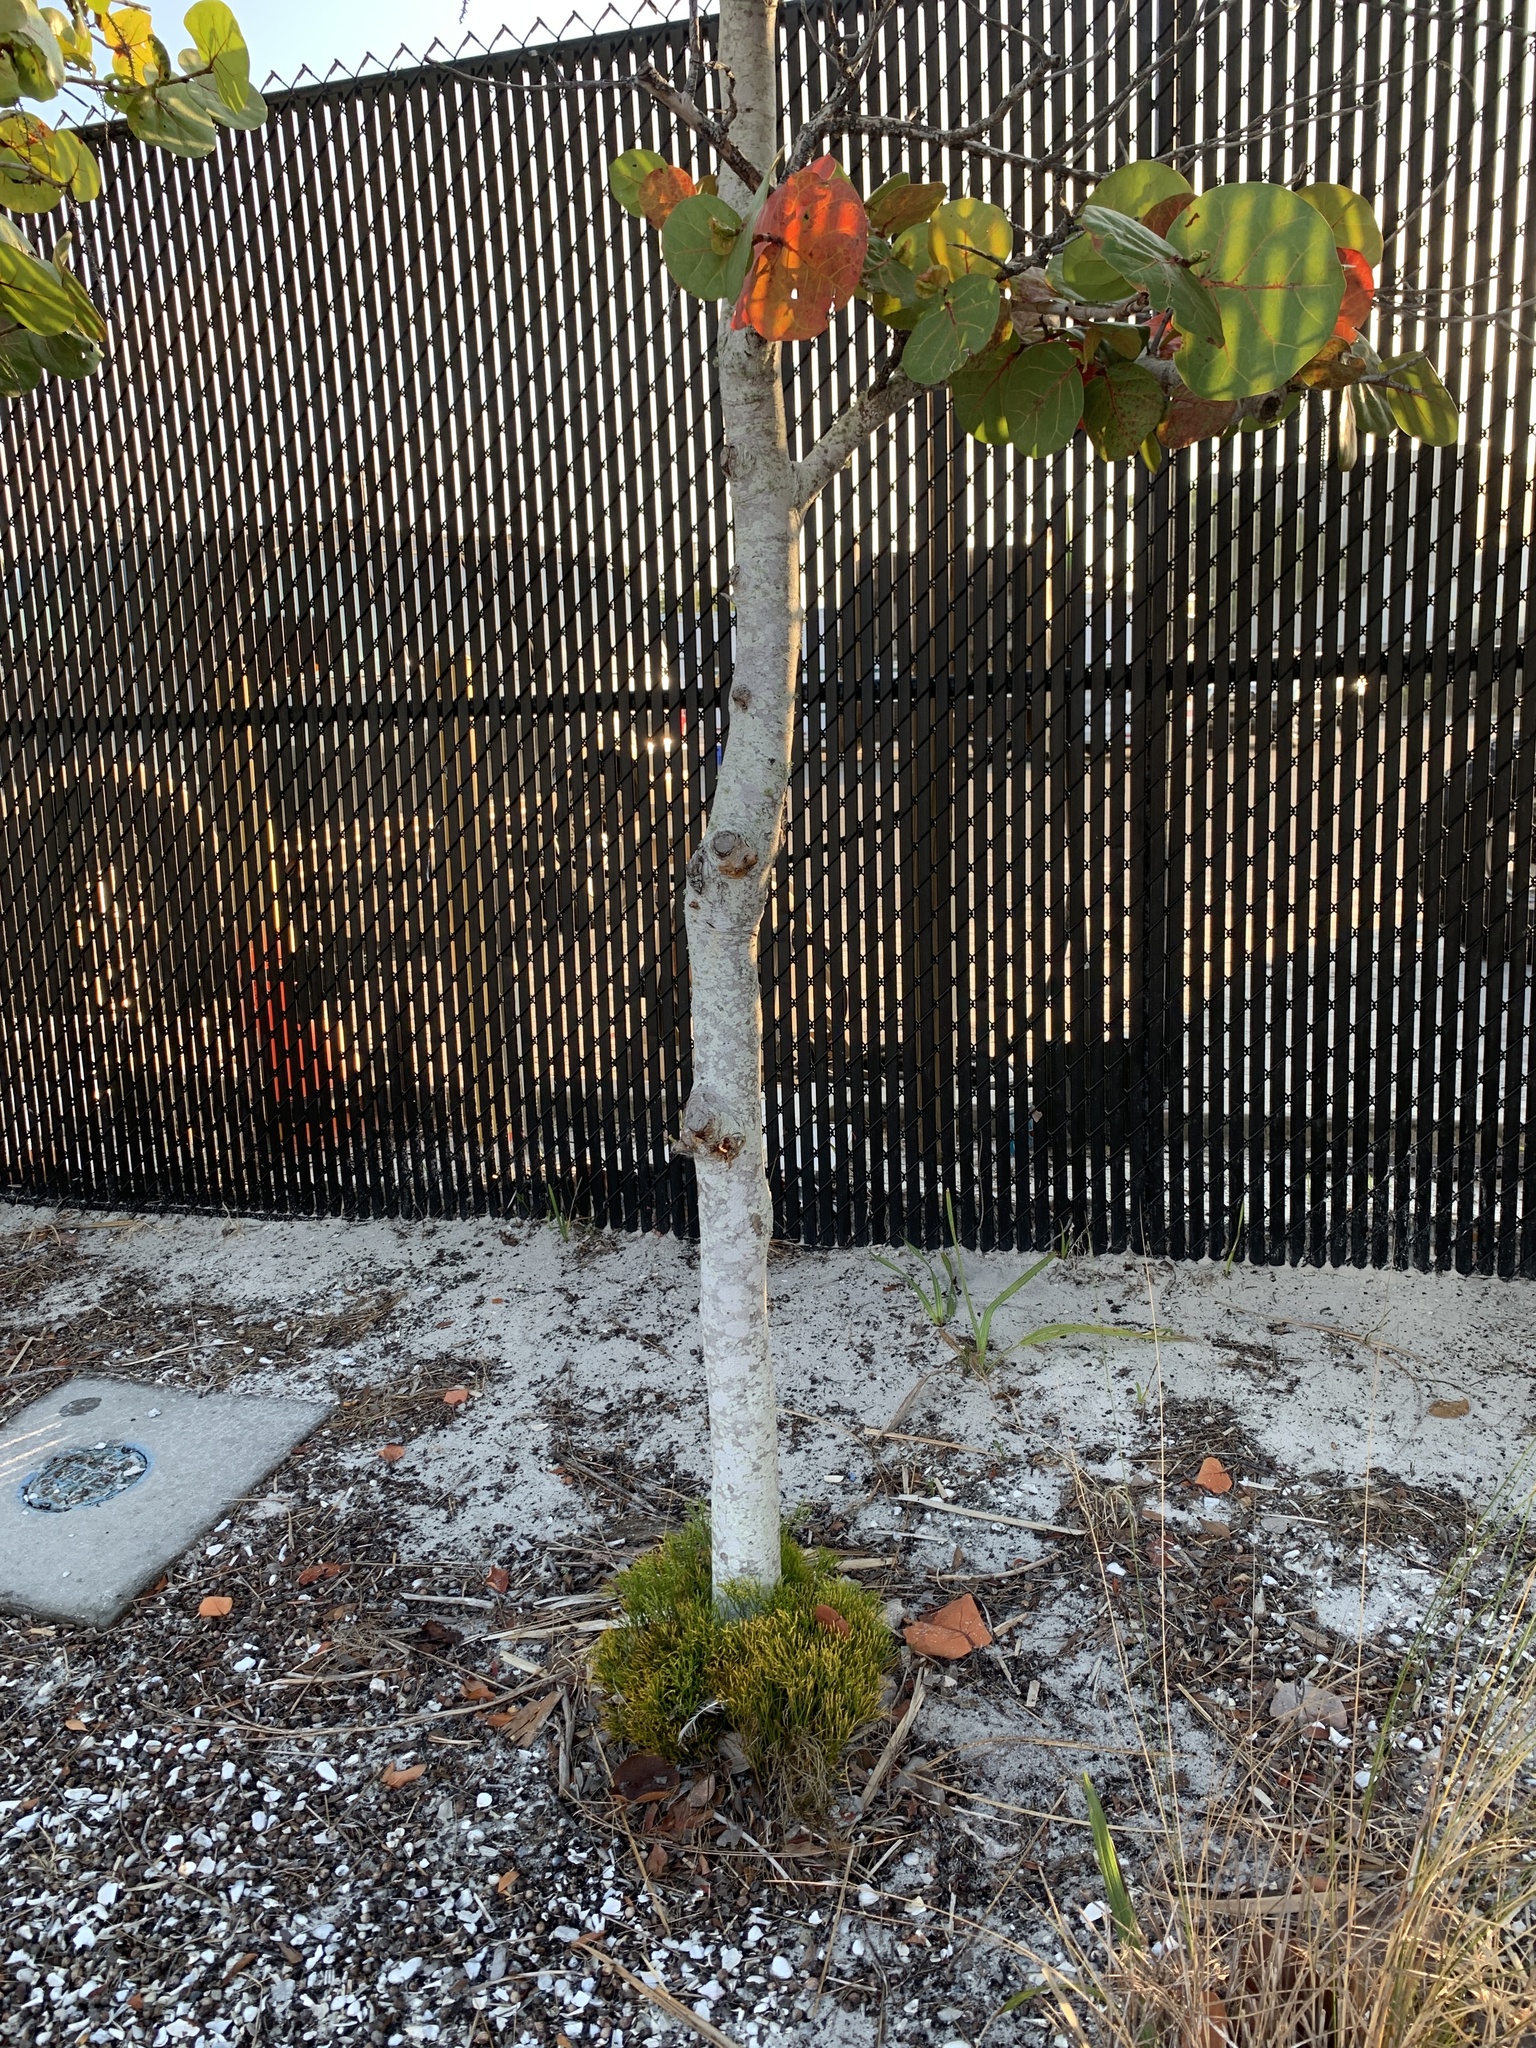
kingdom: Plantae
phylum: Tracheophyta
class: Polypodiopsida
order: Psilotales
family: Psilotaceae
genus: Psilotum
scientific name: Psilotum nudum
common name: Skeleton fork fern
